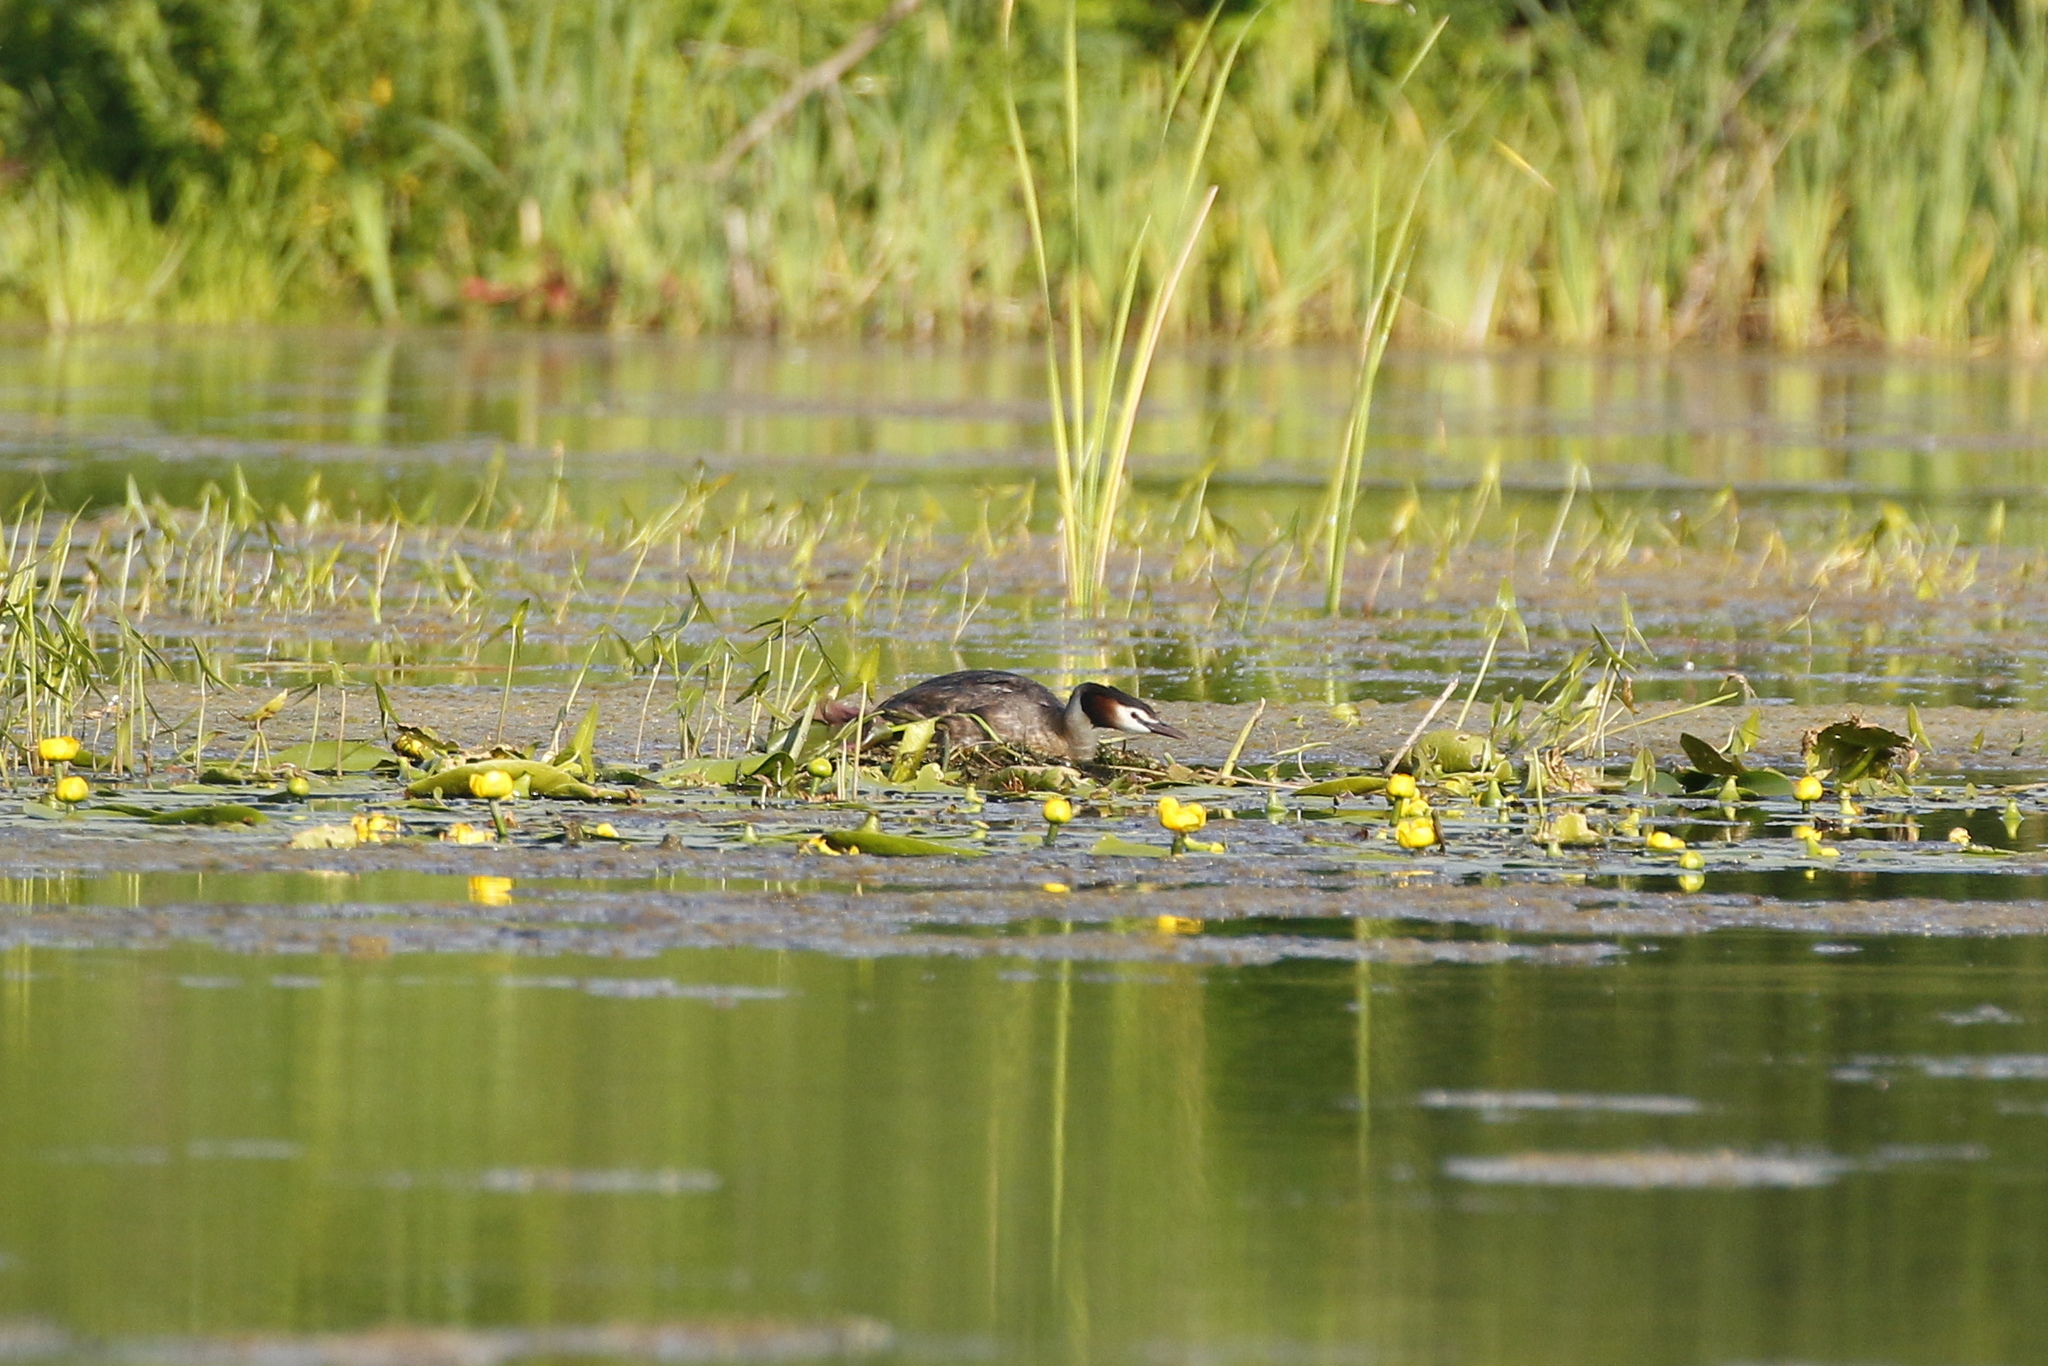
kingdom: Animalia
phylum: Chordata
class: Aves
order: Podicipediformes
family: Podicipedidae
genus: Podiceps
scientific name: Podiceps cristatus
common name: Great crested grebe
